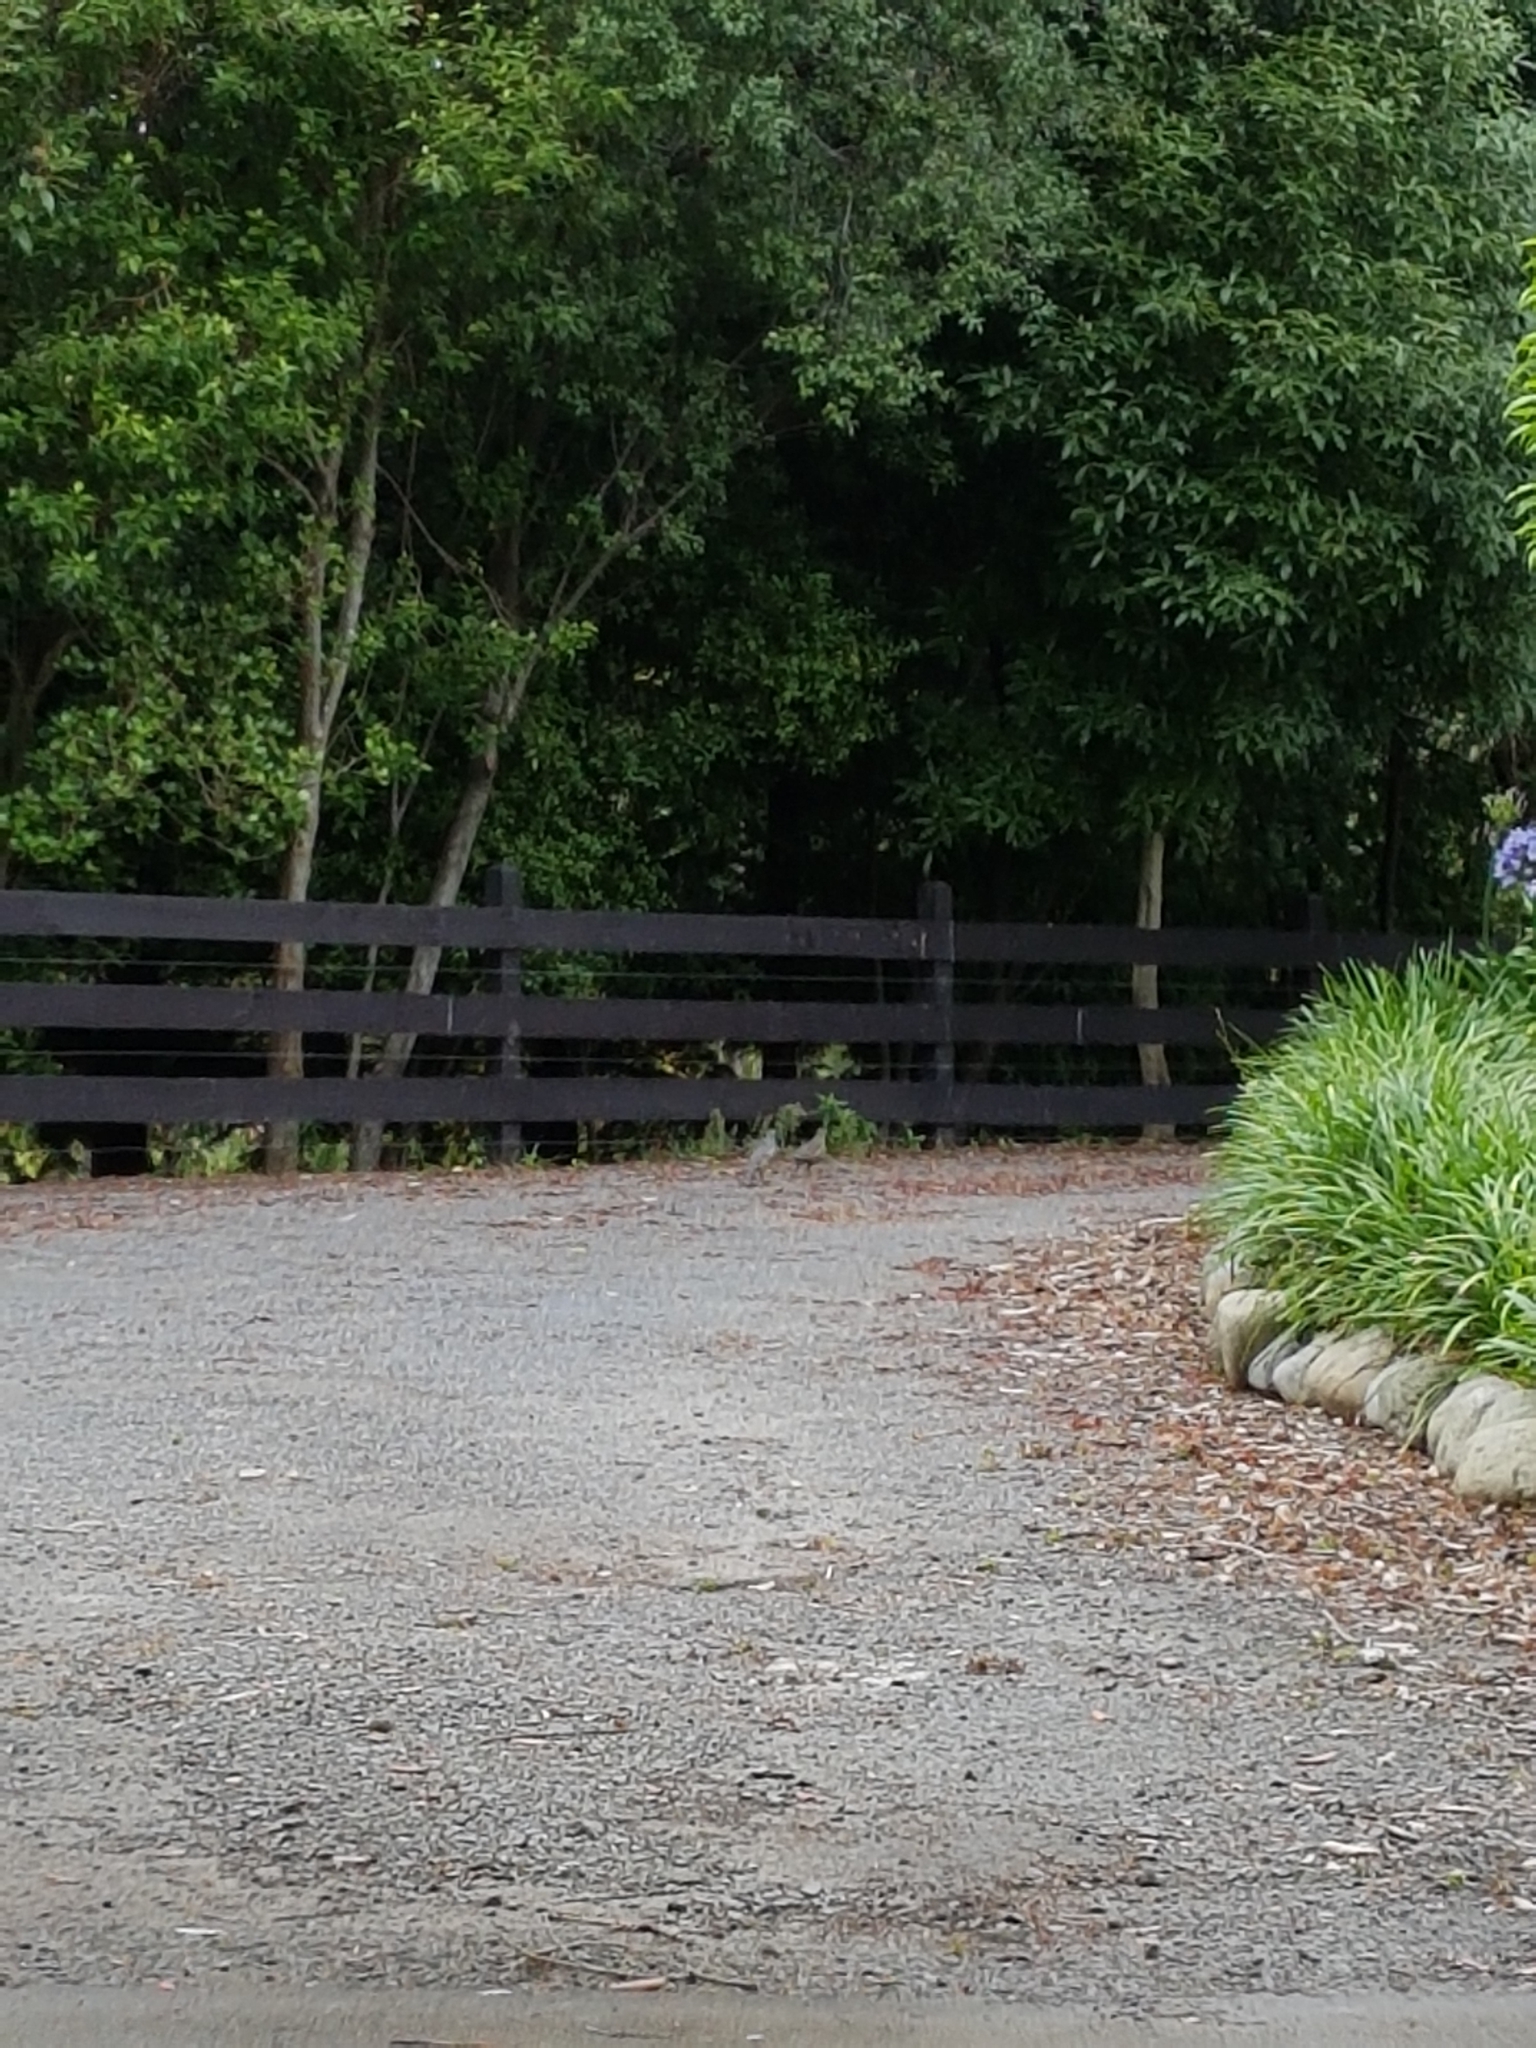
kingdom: Animalia
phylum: Chordata
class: Aves
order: Galliformes
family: Odontophoridae
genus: Callipepla
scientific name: Callipepla californica
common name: California quail
